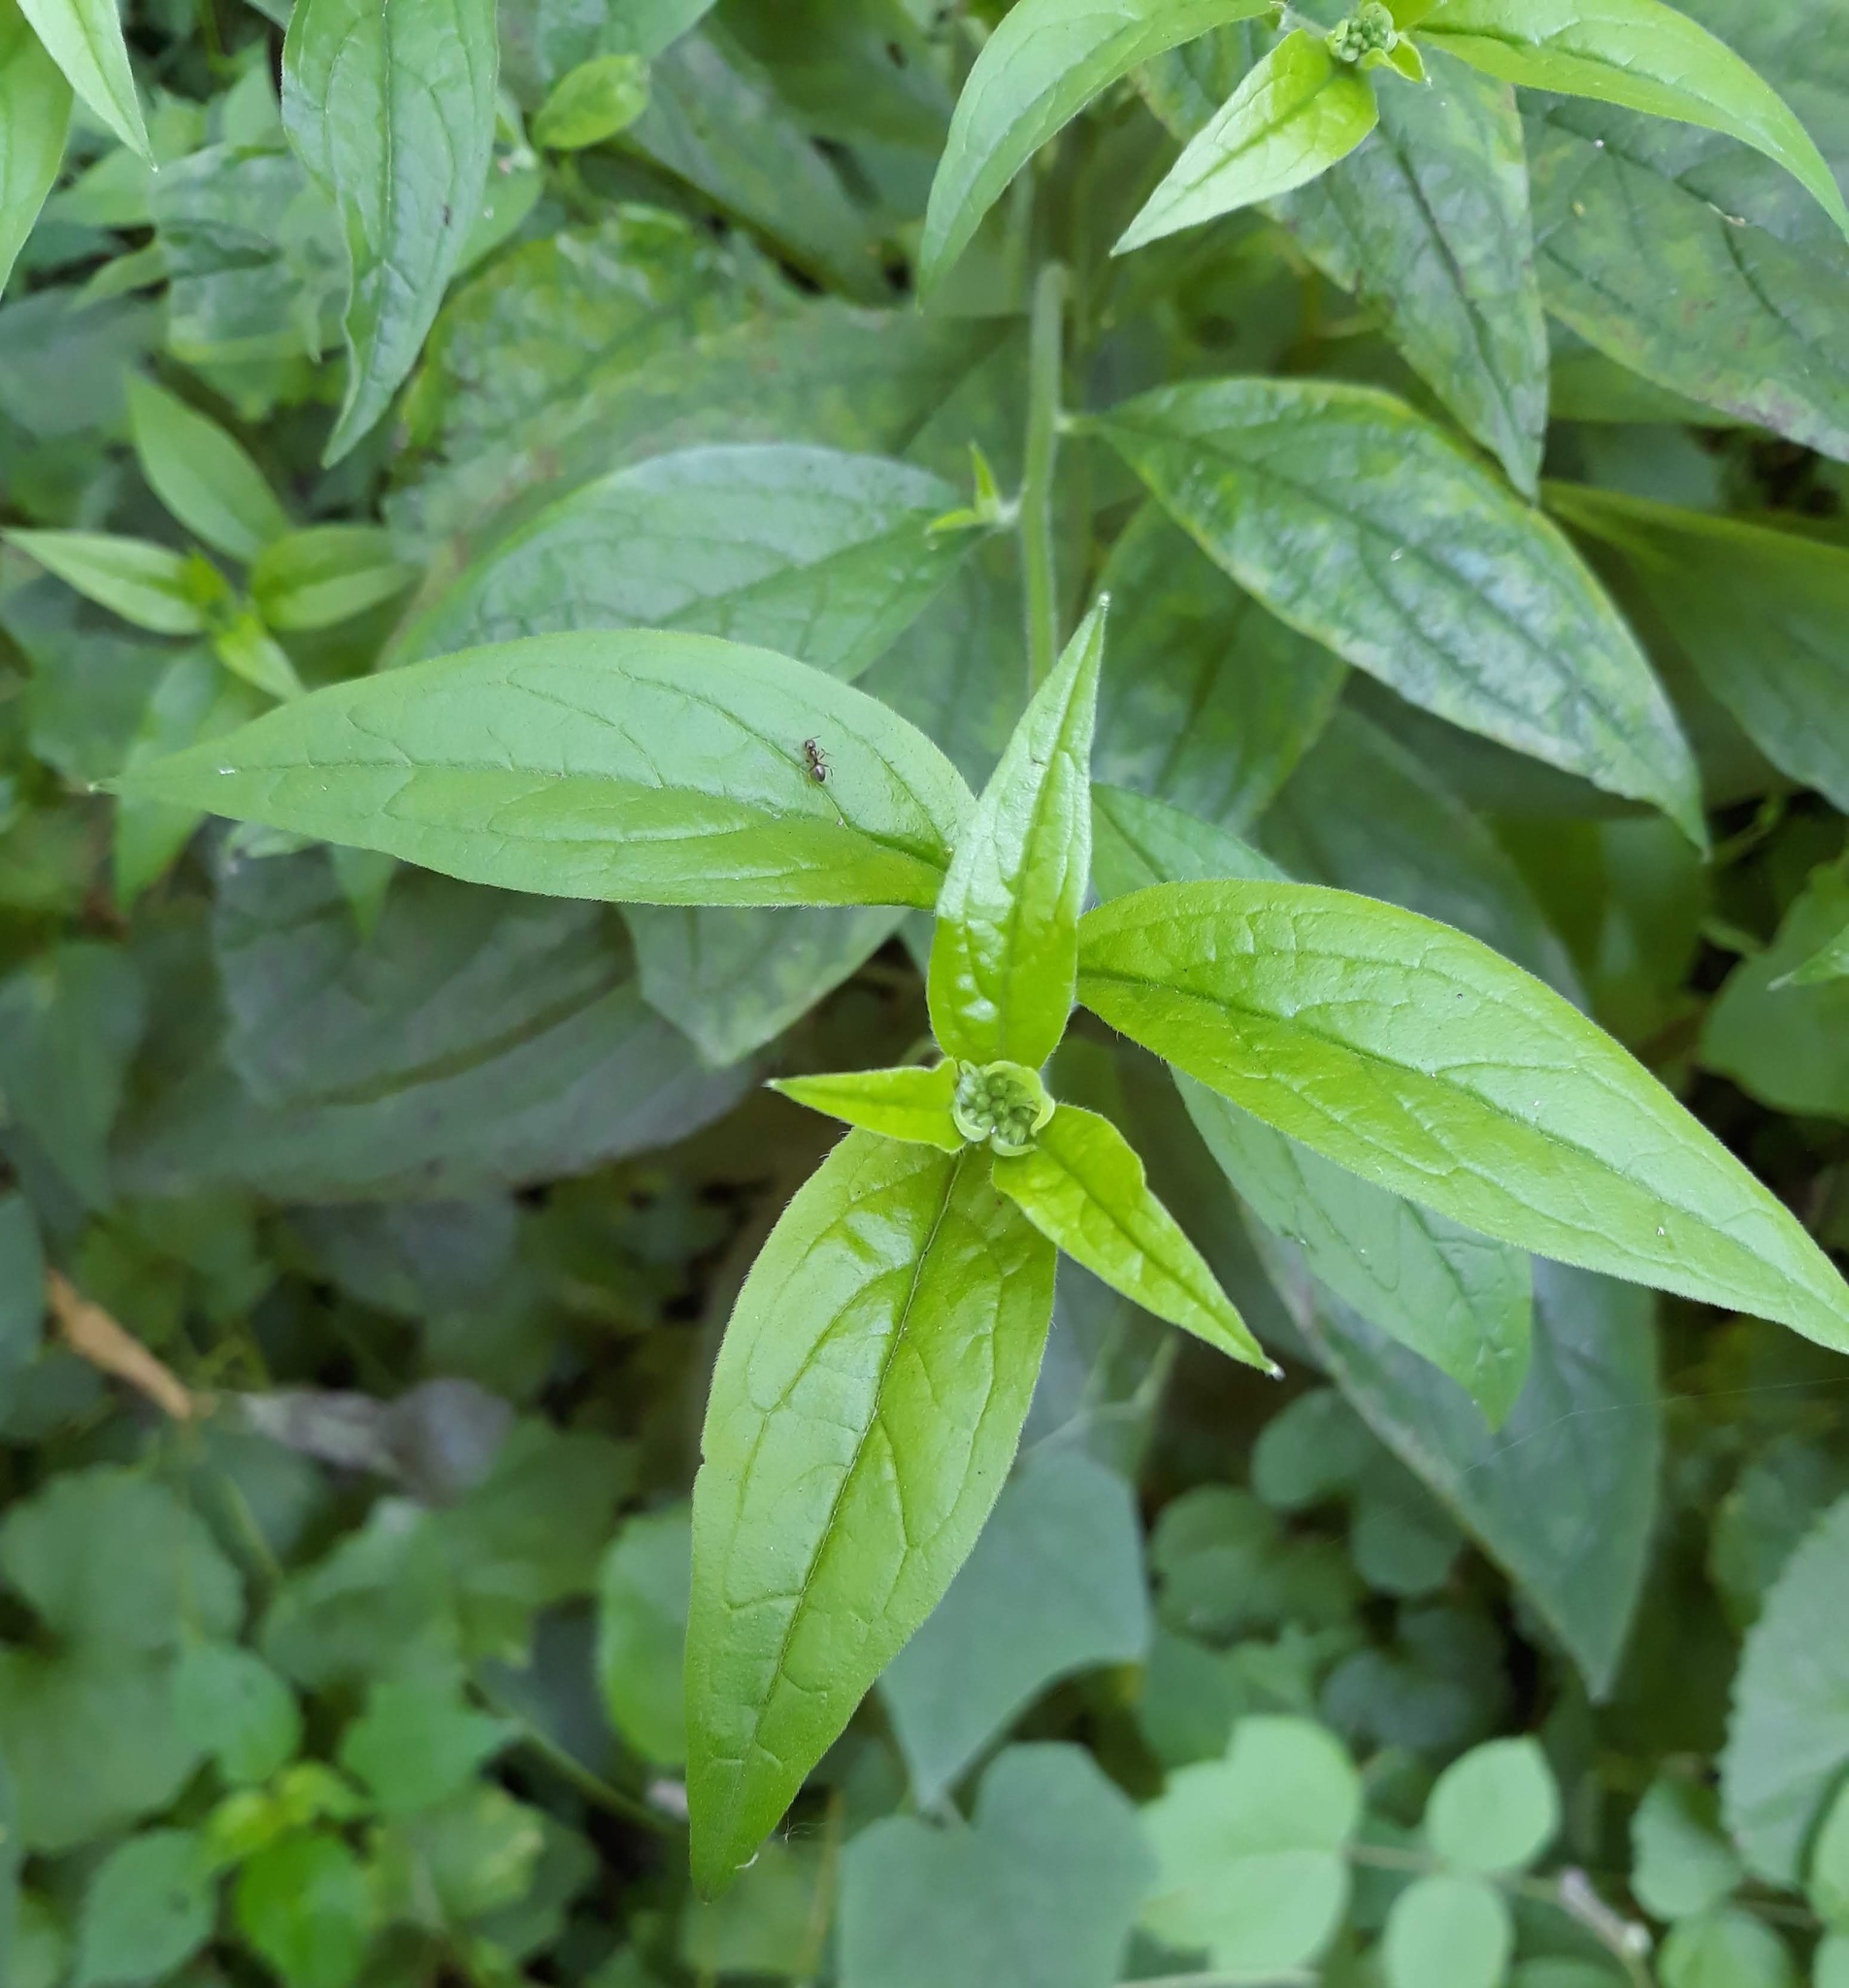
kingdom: Plantae
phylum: Tracheophyta
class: Magnoliopsida
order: Boraginales
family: Boraginaceae
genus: Hackelia
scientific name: Hackelia virginiana
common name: Beggar's-lice
